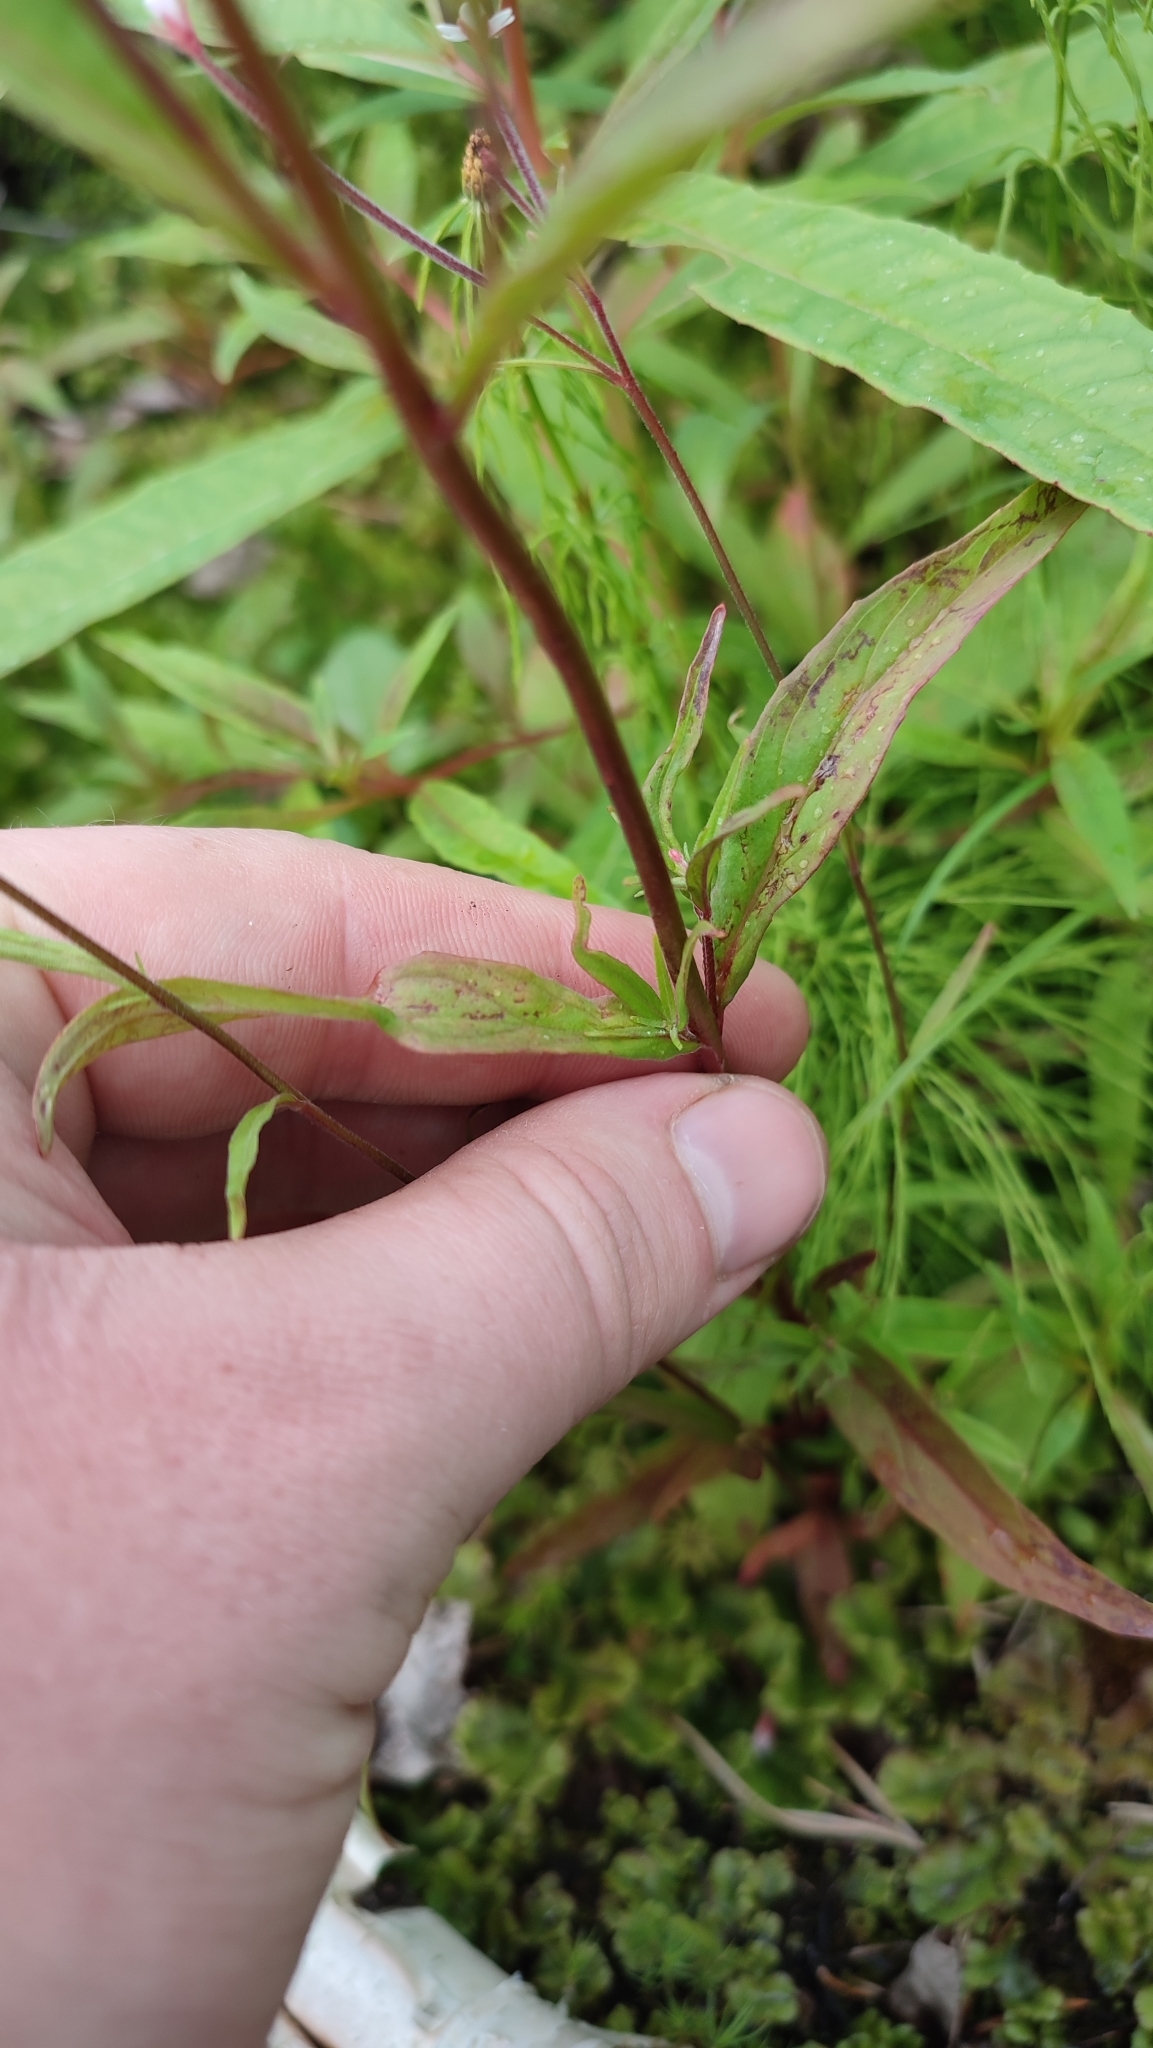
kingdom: Plantae
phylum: Tracheophyta
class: Magnoliopsida
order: Myrtales
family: Onagraceae
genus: Epilobium
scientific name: Epilobium palustre
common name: Marsh willowherb
